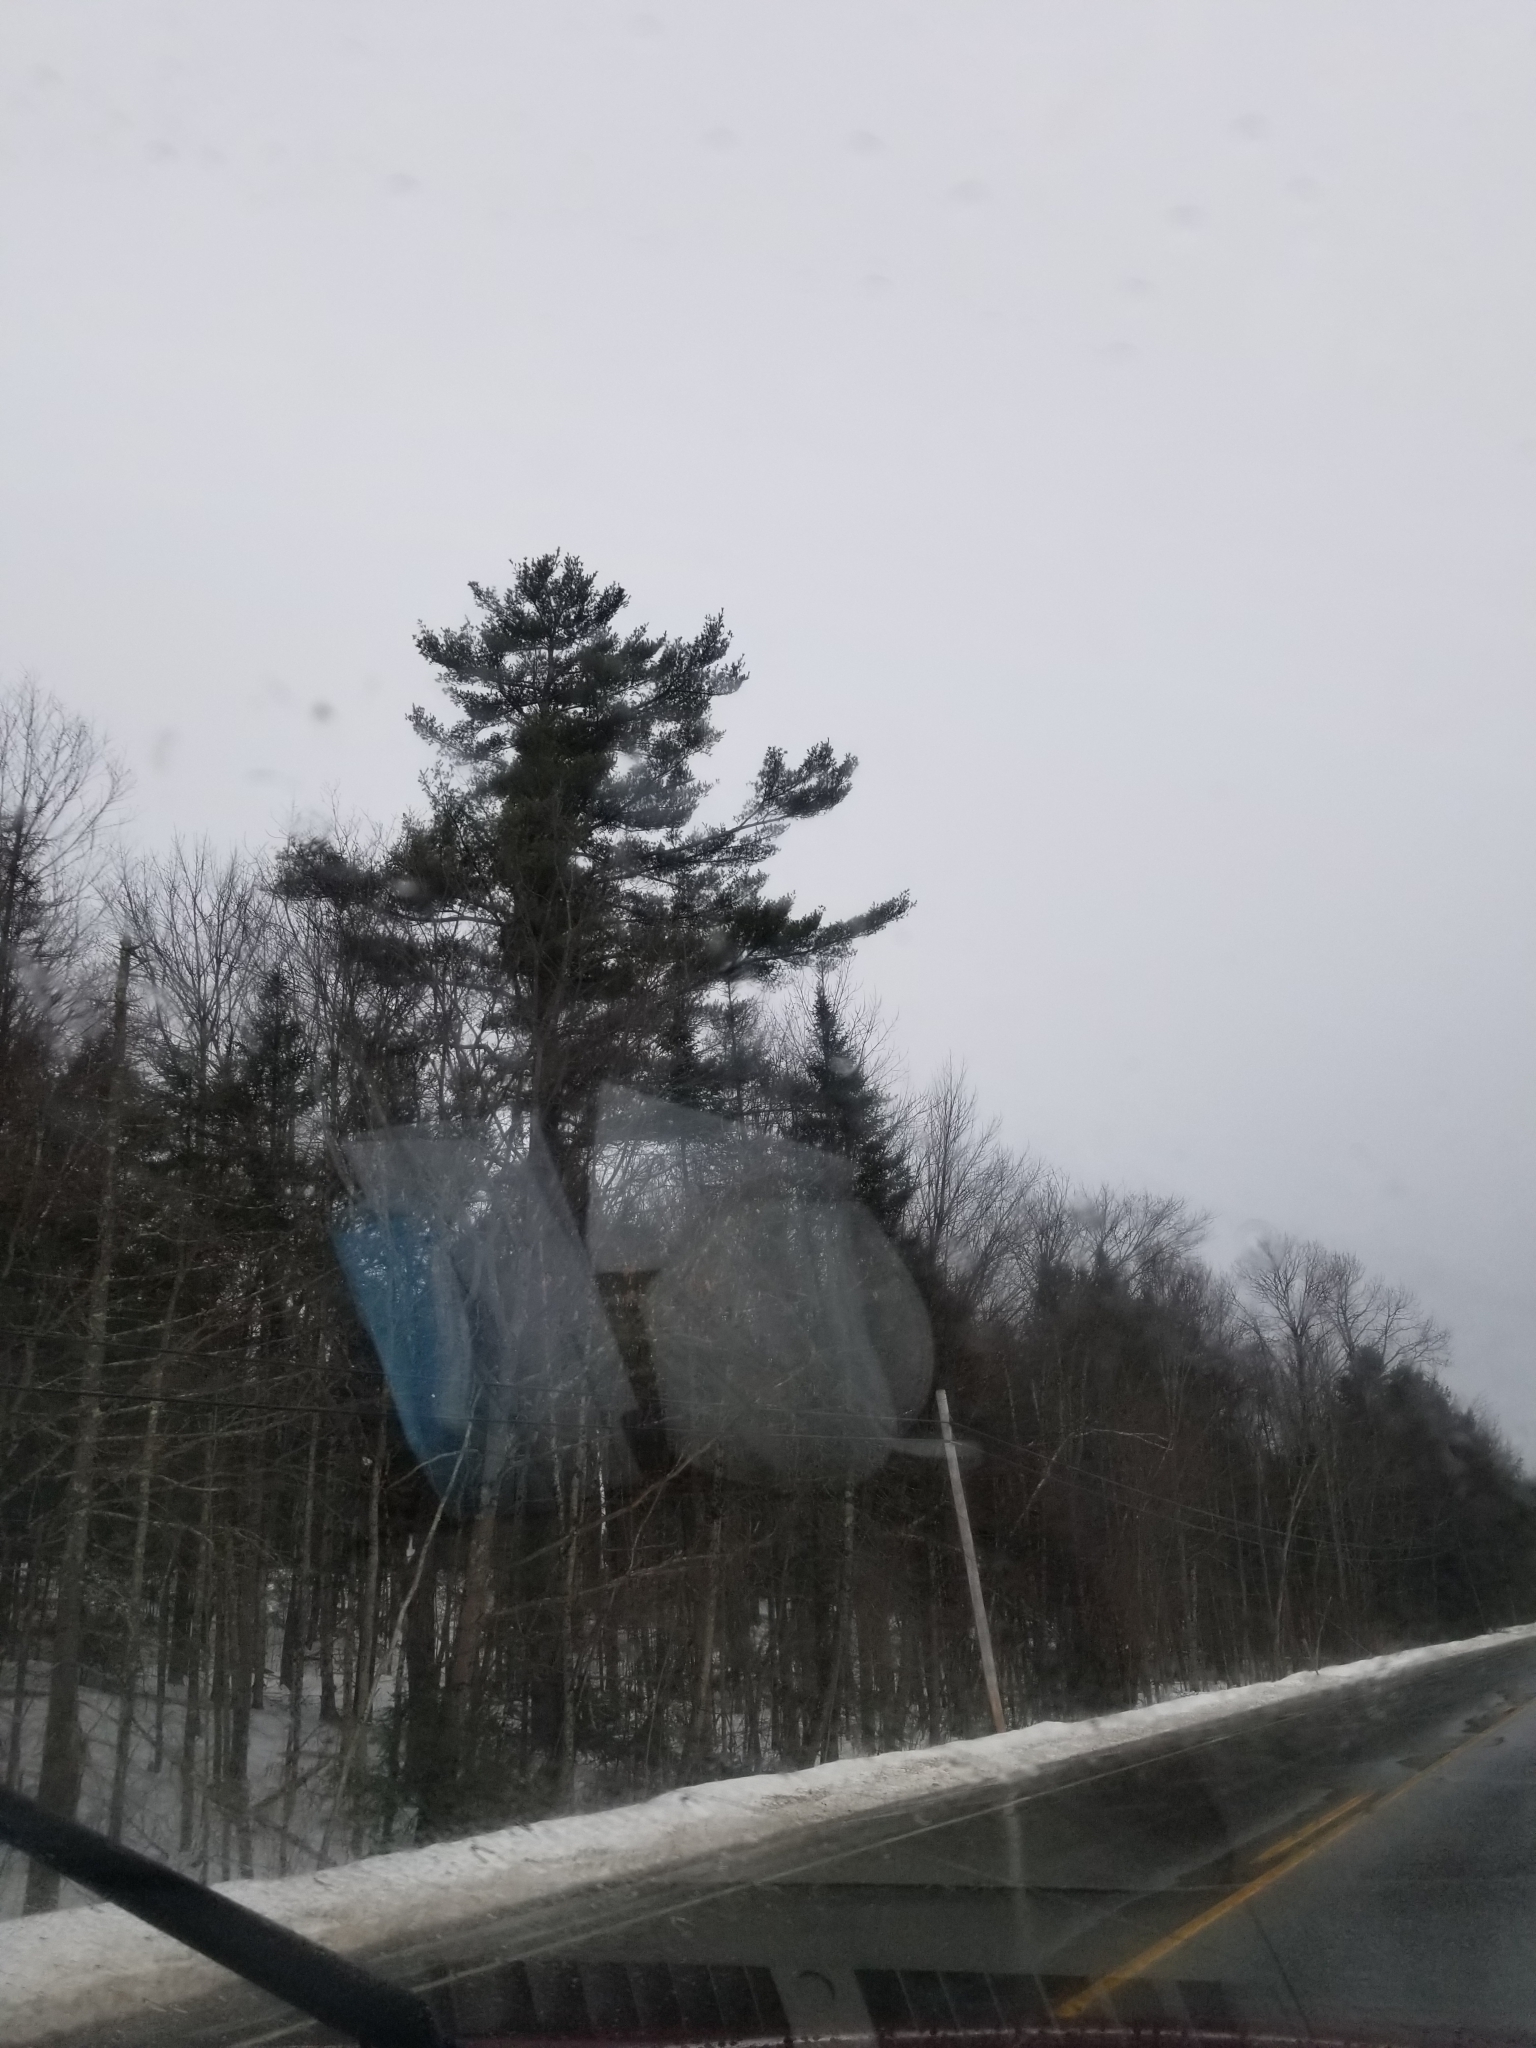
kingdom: Plantae
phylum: Tracheophyta
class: Pinopsida
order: Pinales
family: Pinaceae
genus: Pinus
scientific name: Pinus strobus
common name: Weymouth pine
